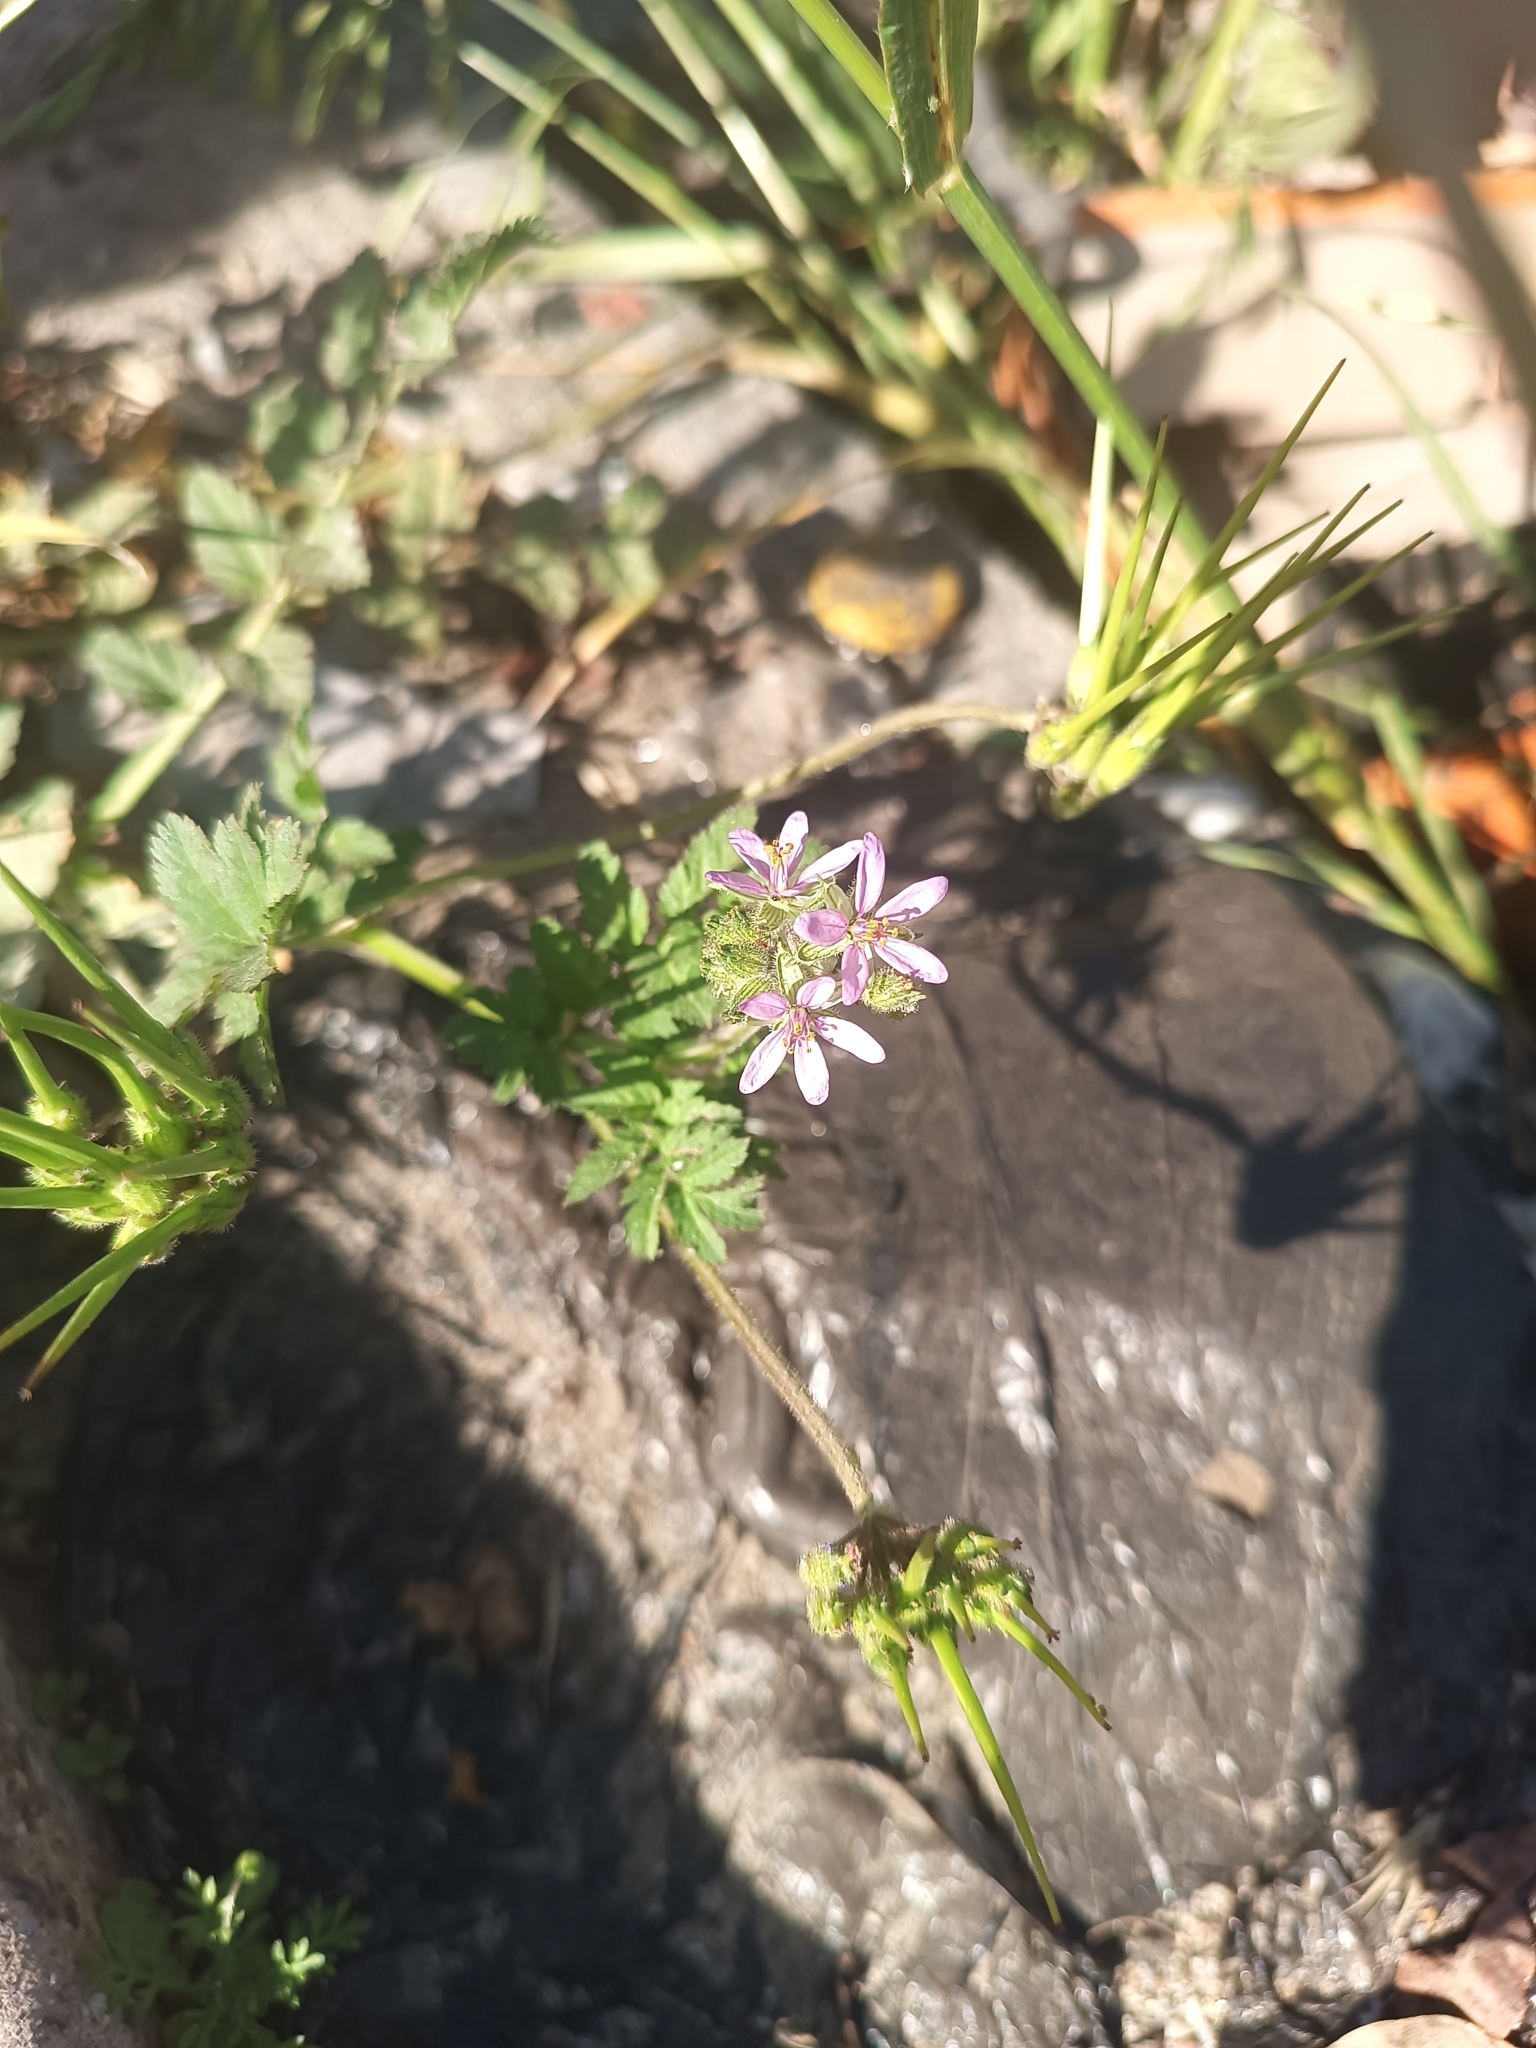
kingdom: Plantae
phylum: Tracheophyta
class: Magnoliopsida
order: Geraniales
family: Geraniaceae
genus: Erodium
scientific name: Erodium moschatum
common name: Musk stork's-bill
